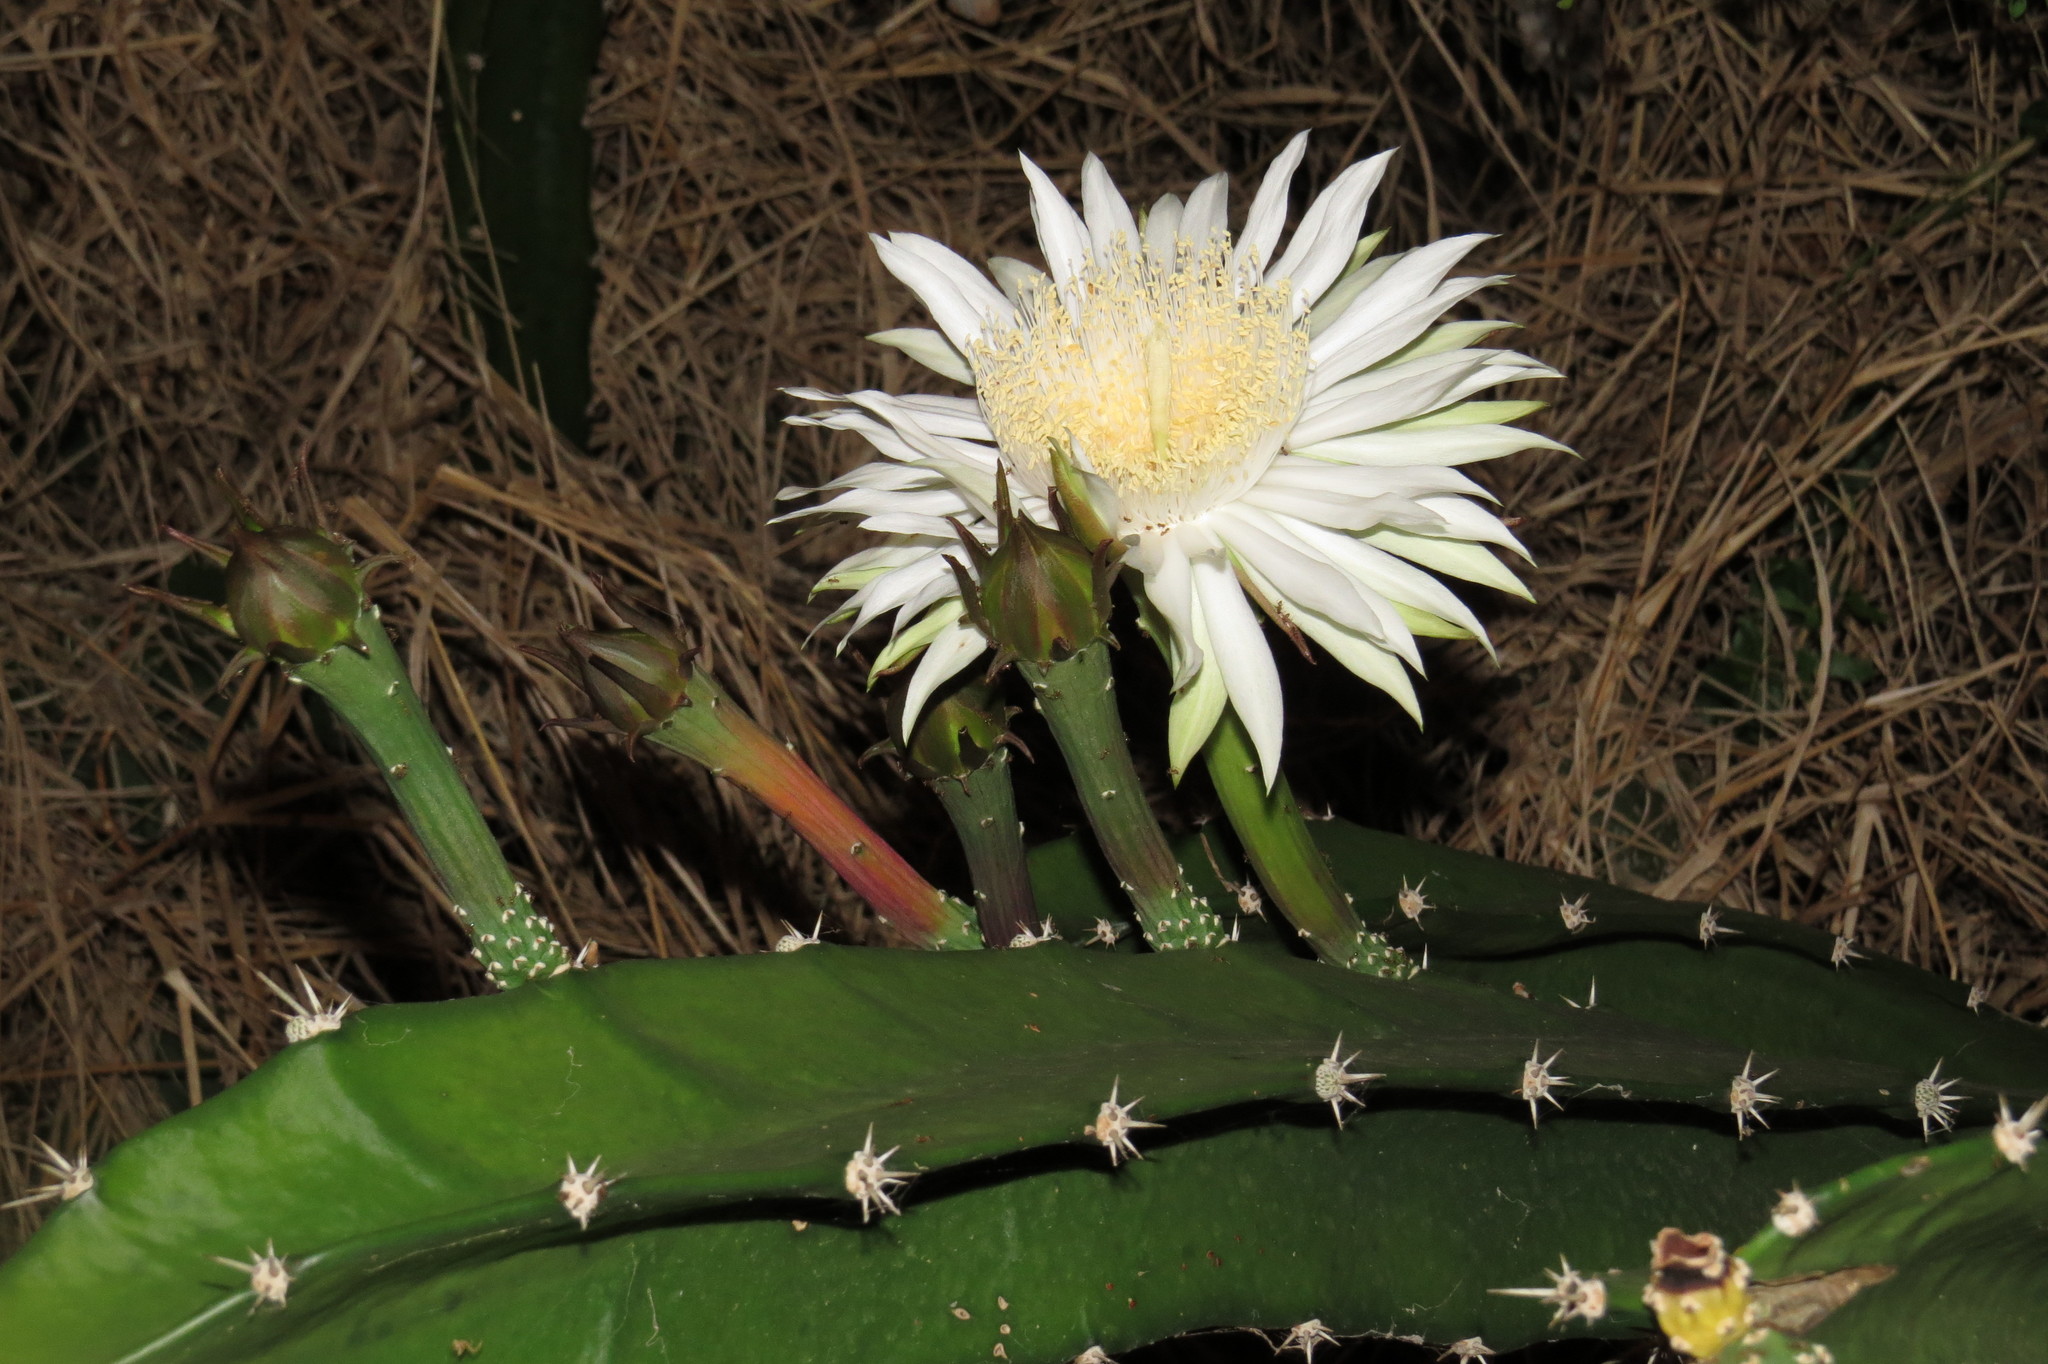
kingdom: Plantae
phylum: Tracheophyta
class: Magnoliopsida
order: Caryophyllales
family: Cactaceae
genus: Acanthocereus
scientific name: Acanthocereus tetragonus
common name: Triangle cactus
